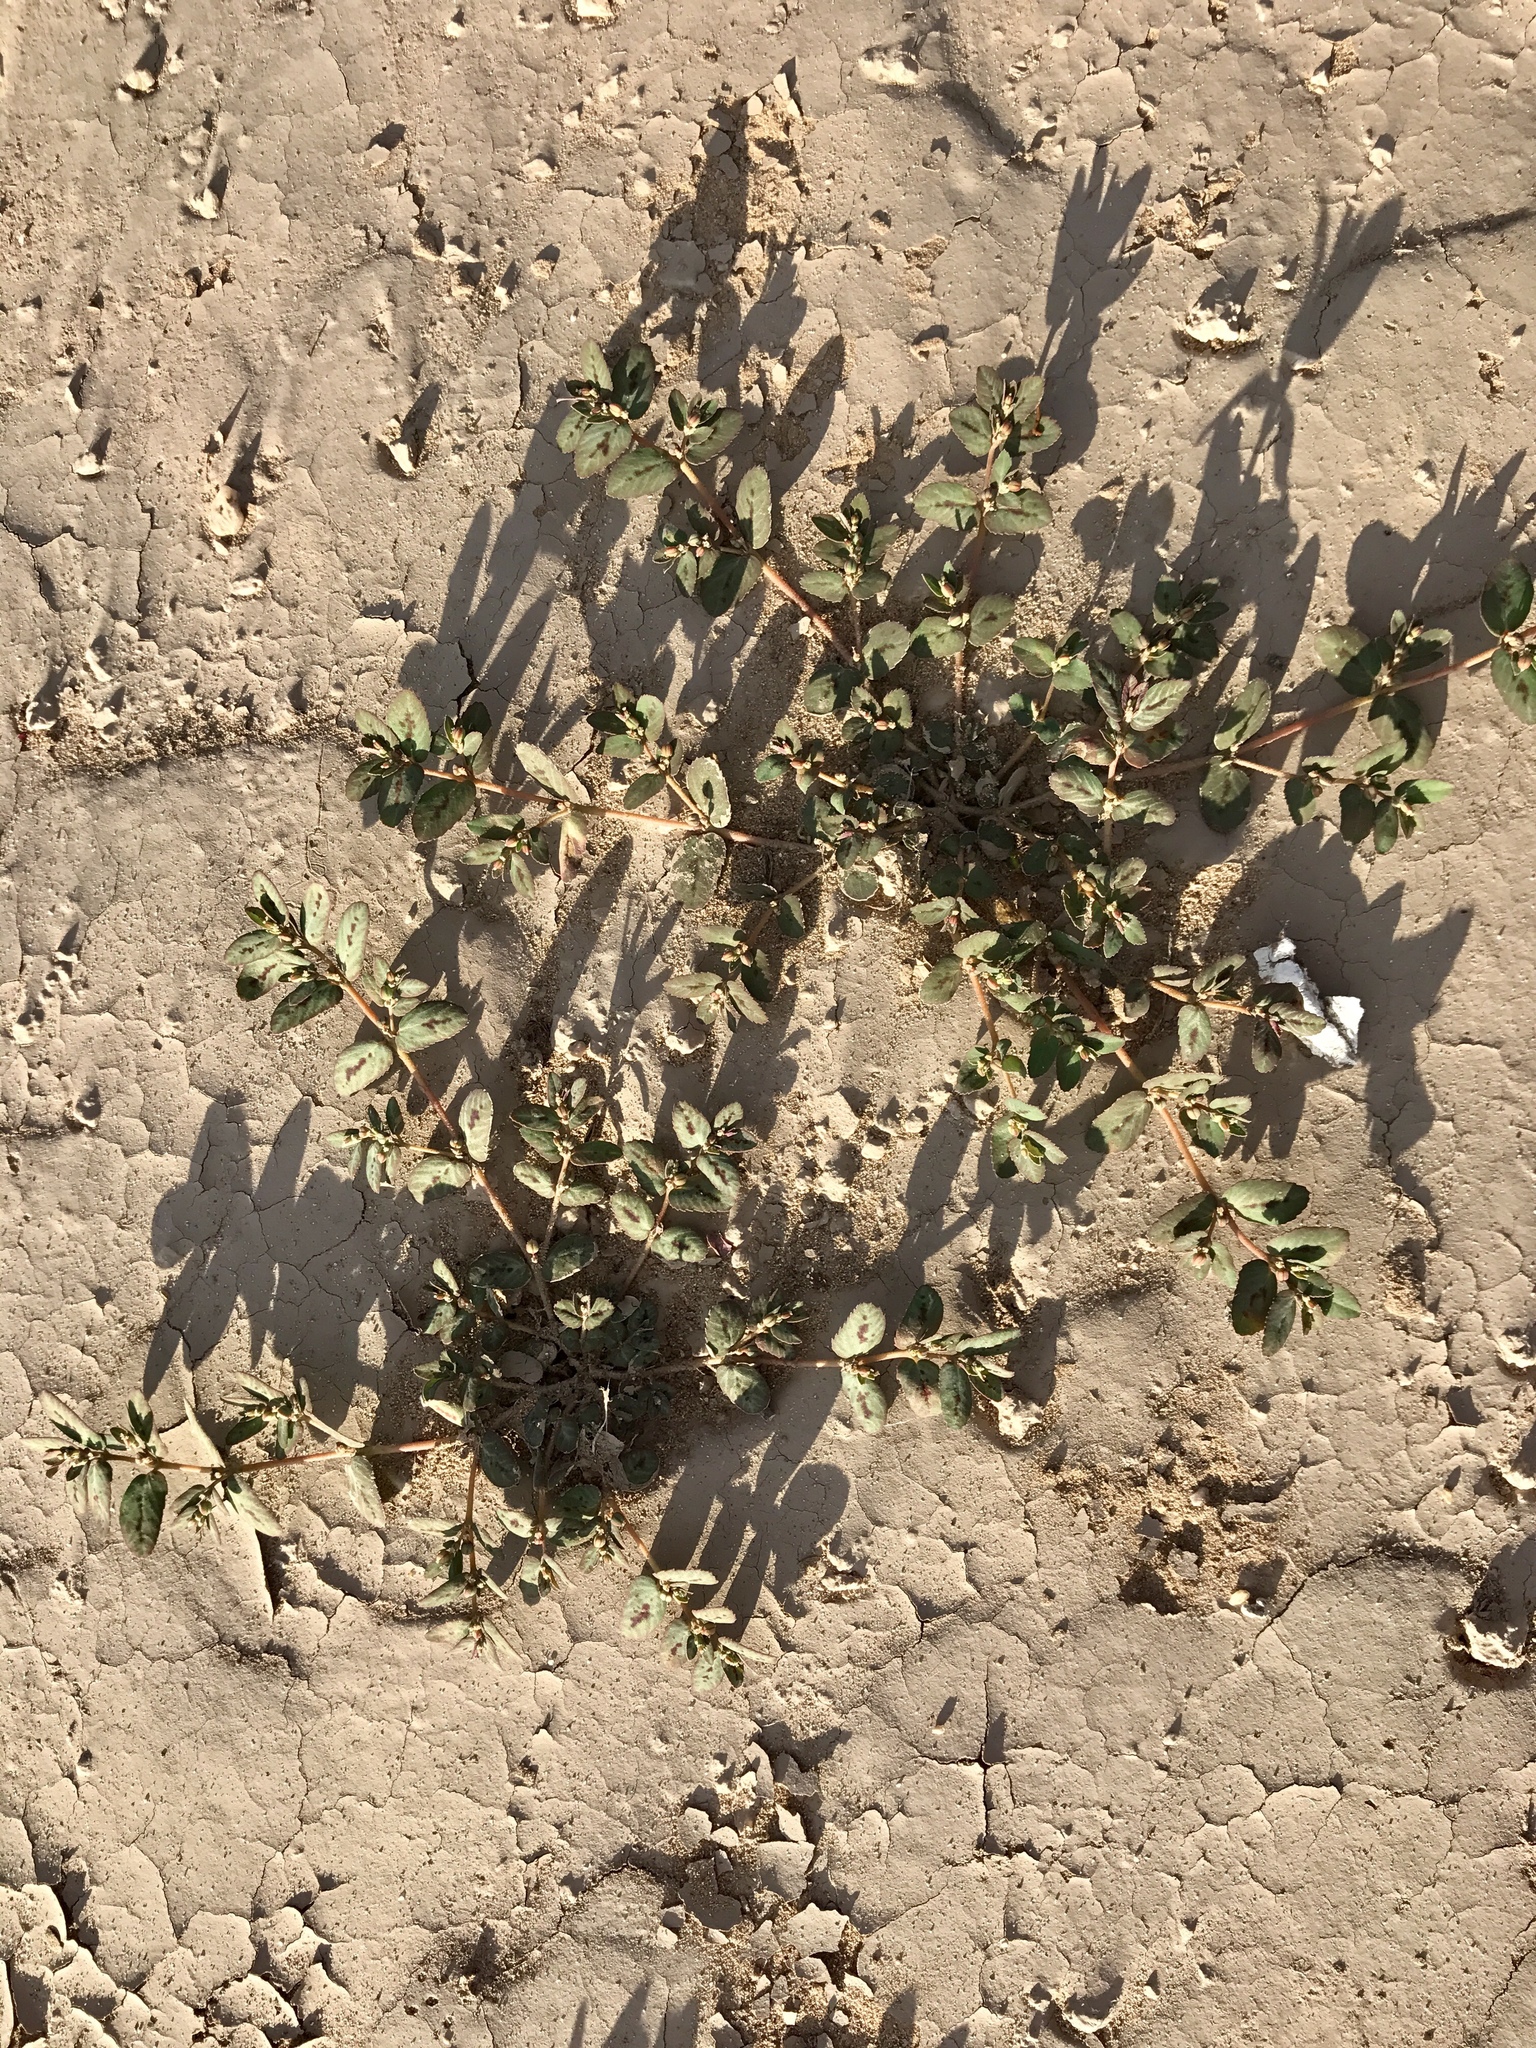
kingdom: Plantae
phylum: Tracheophyta
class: Magnoliopsida
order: Malpighiales
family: Euphorbiaceae
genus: Euphorbia
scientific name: Euphorbia abramsiana
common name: Abram's spurge
